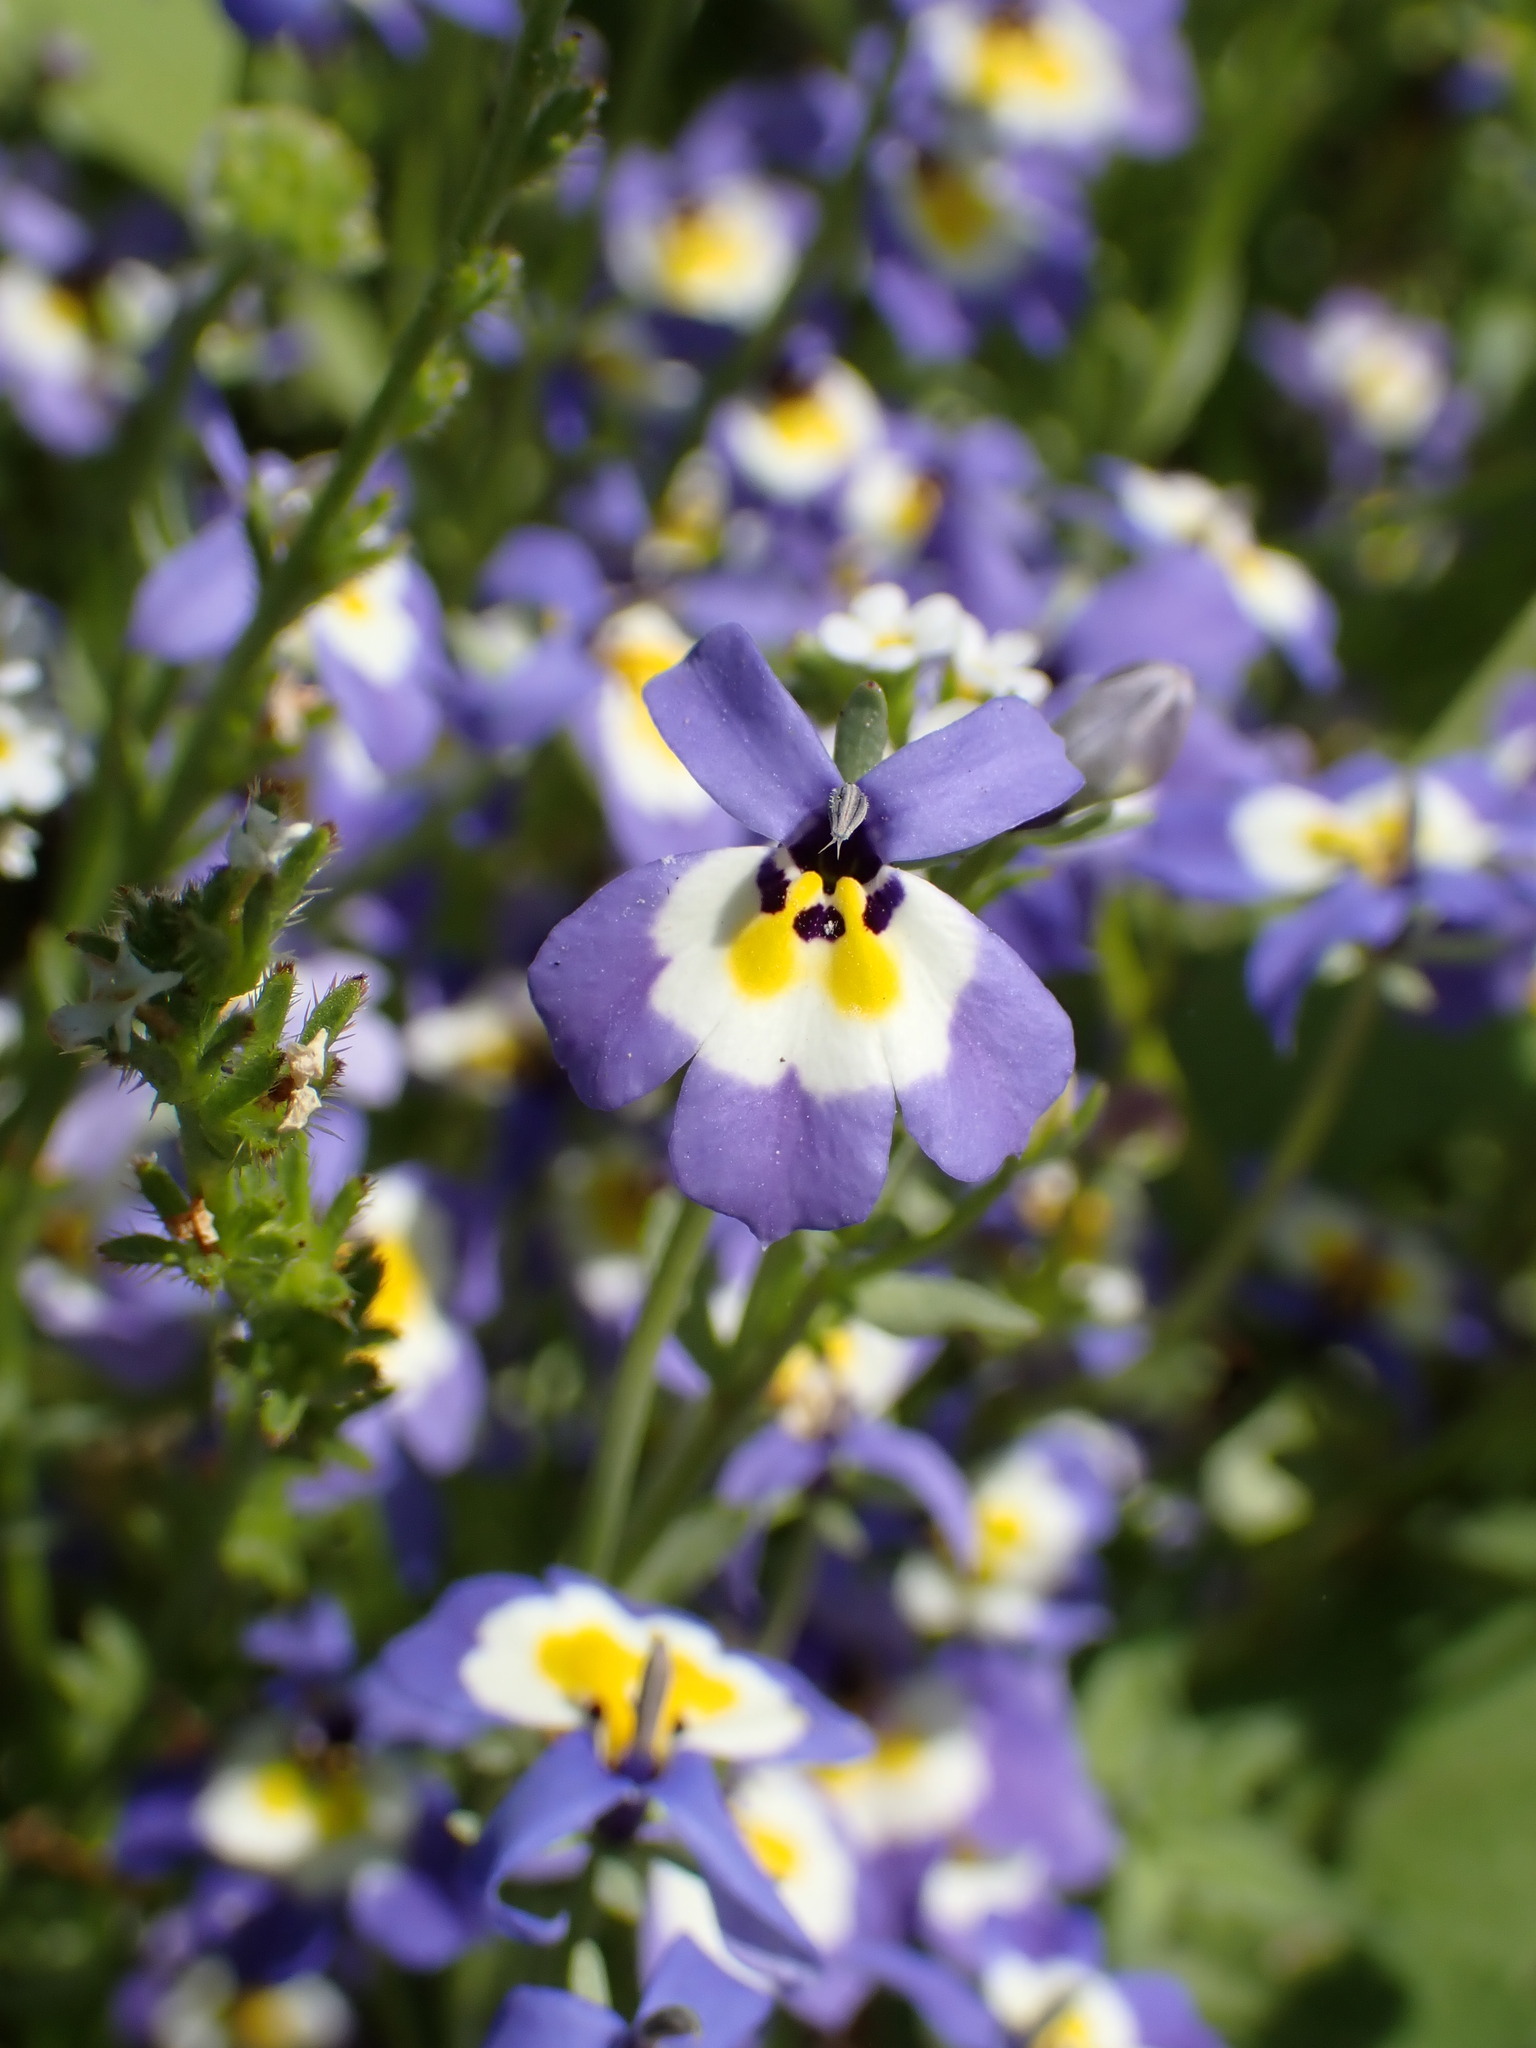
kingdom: Plantae
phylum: Tracheophyta
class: Magnoliopsida
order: Asterales
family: Campanulaceae
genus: Downingia
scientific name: Downingia pulchella
